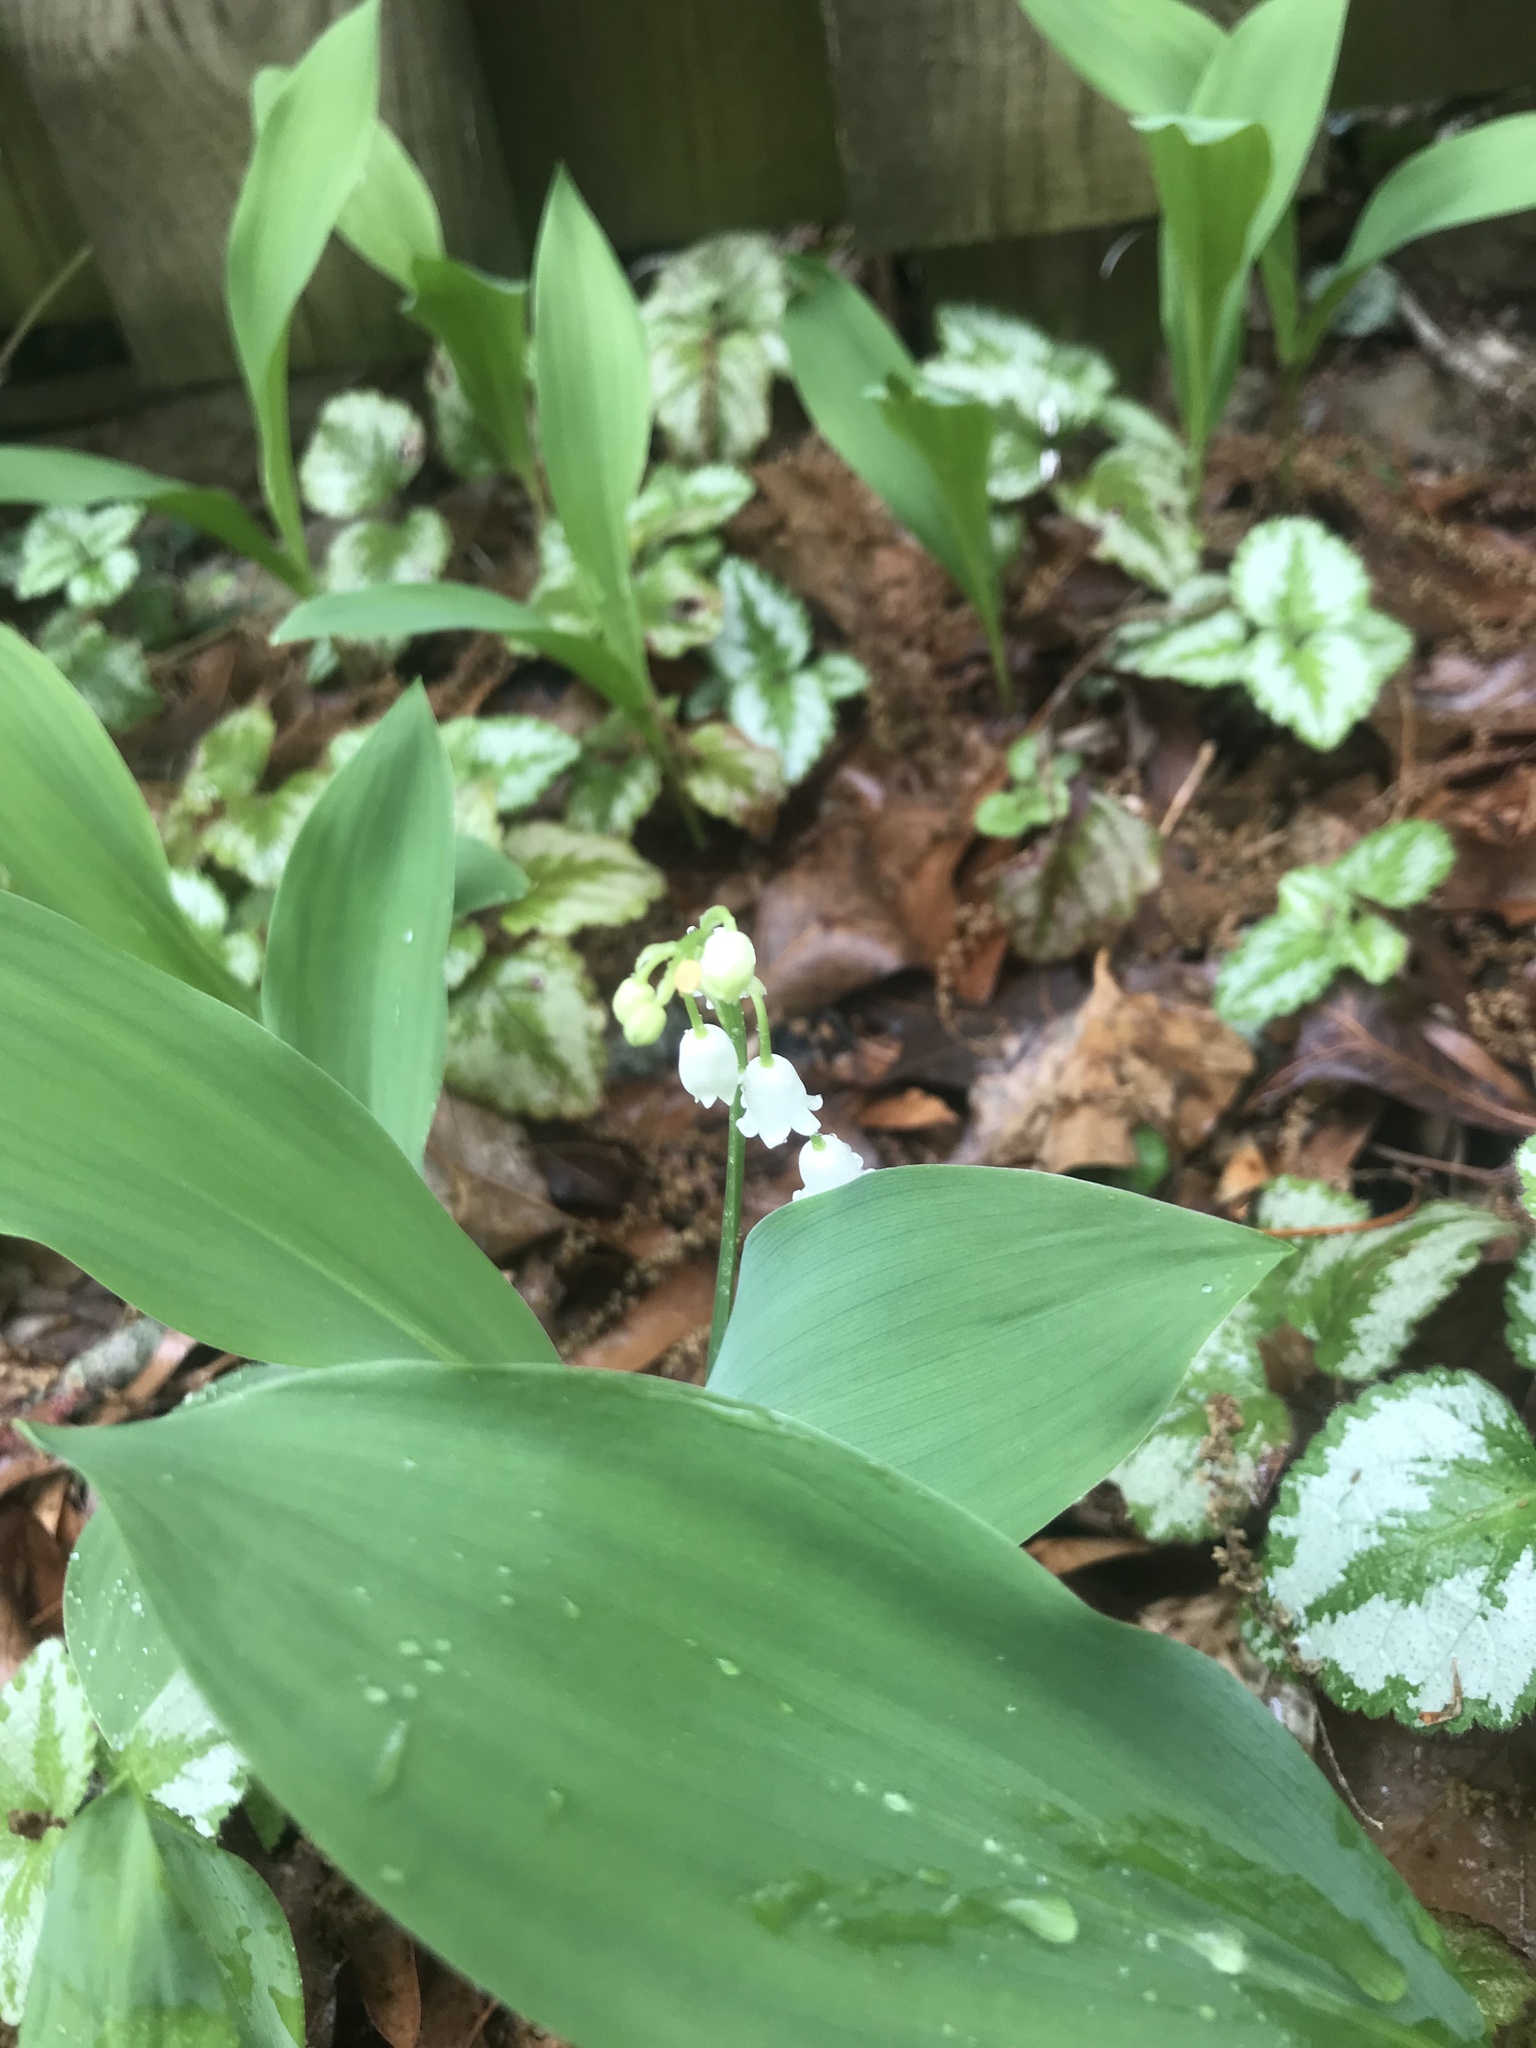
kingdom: Plantae
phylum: Tracheophyta
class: Liliopsida
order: Asparagales
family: Asparagaceae
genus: Convallaria
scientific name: Convallaria majalis
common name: Lily-of-the-valley
